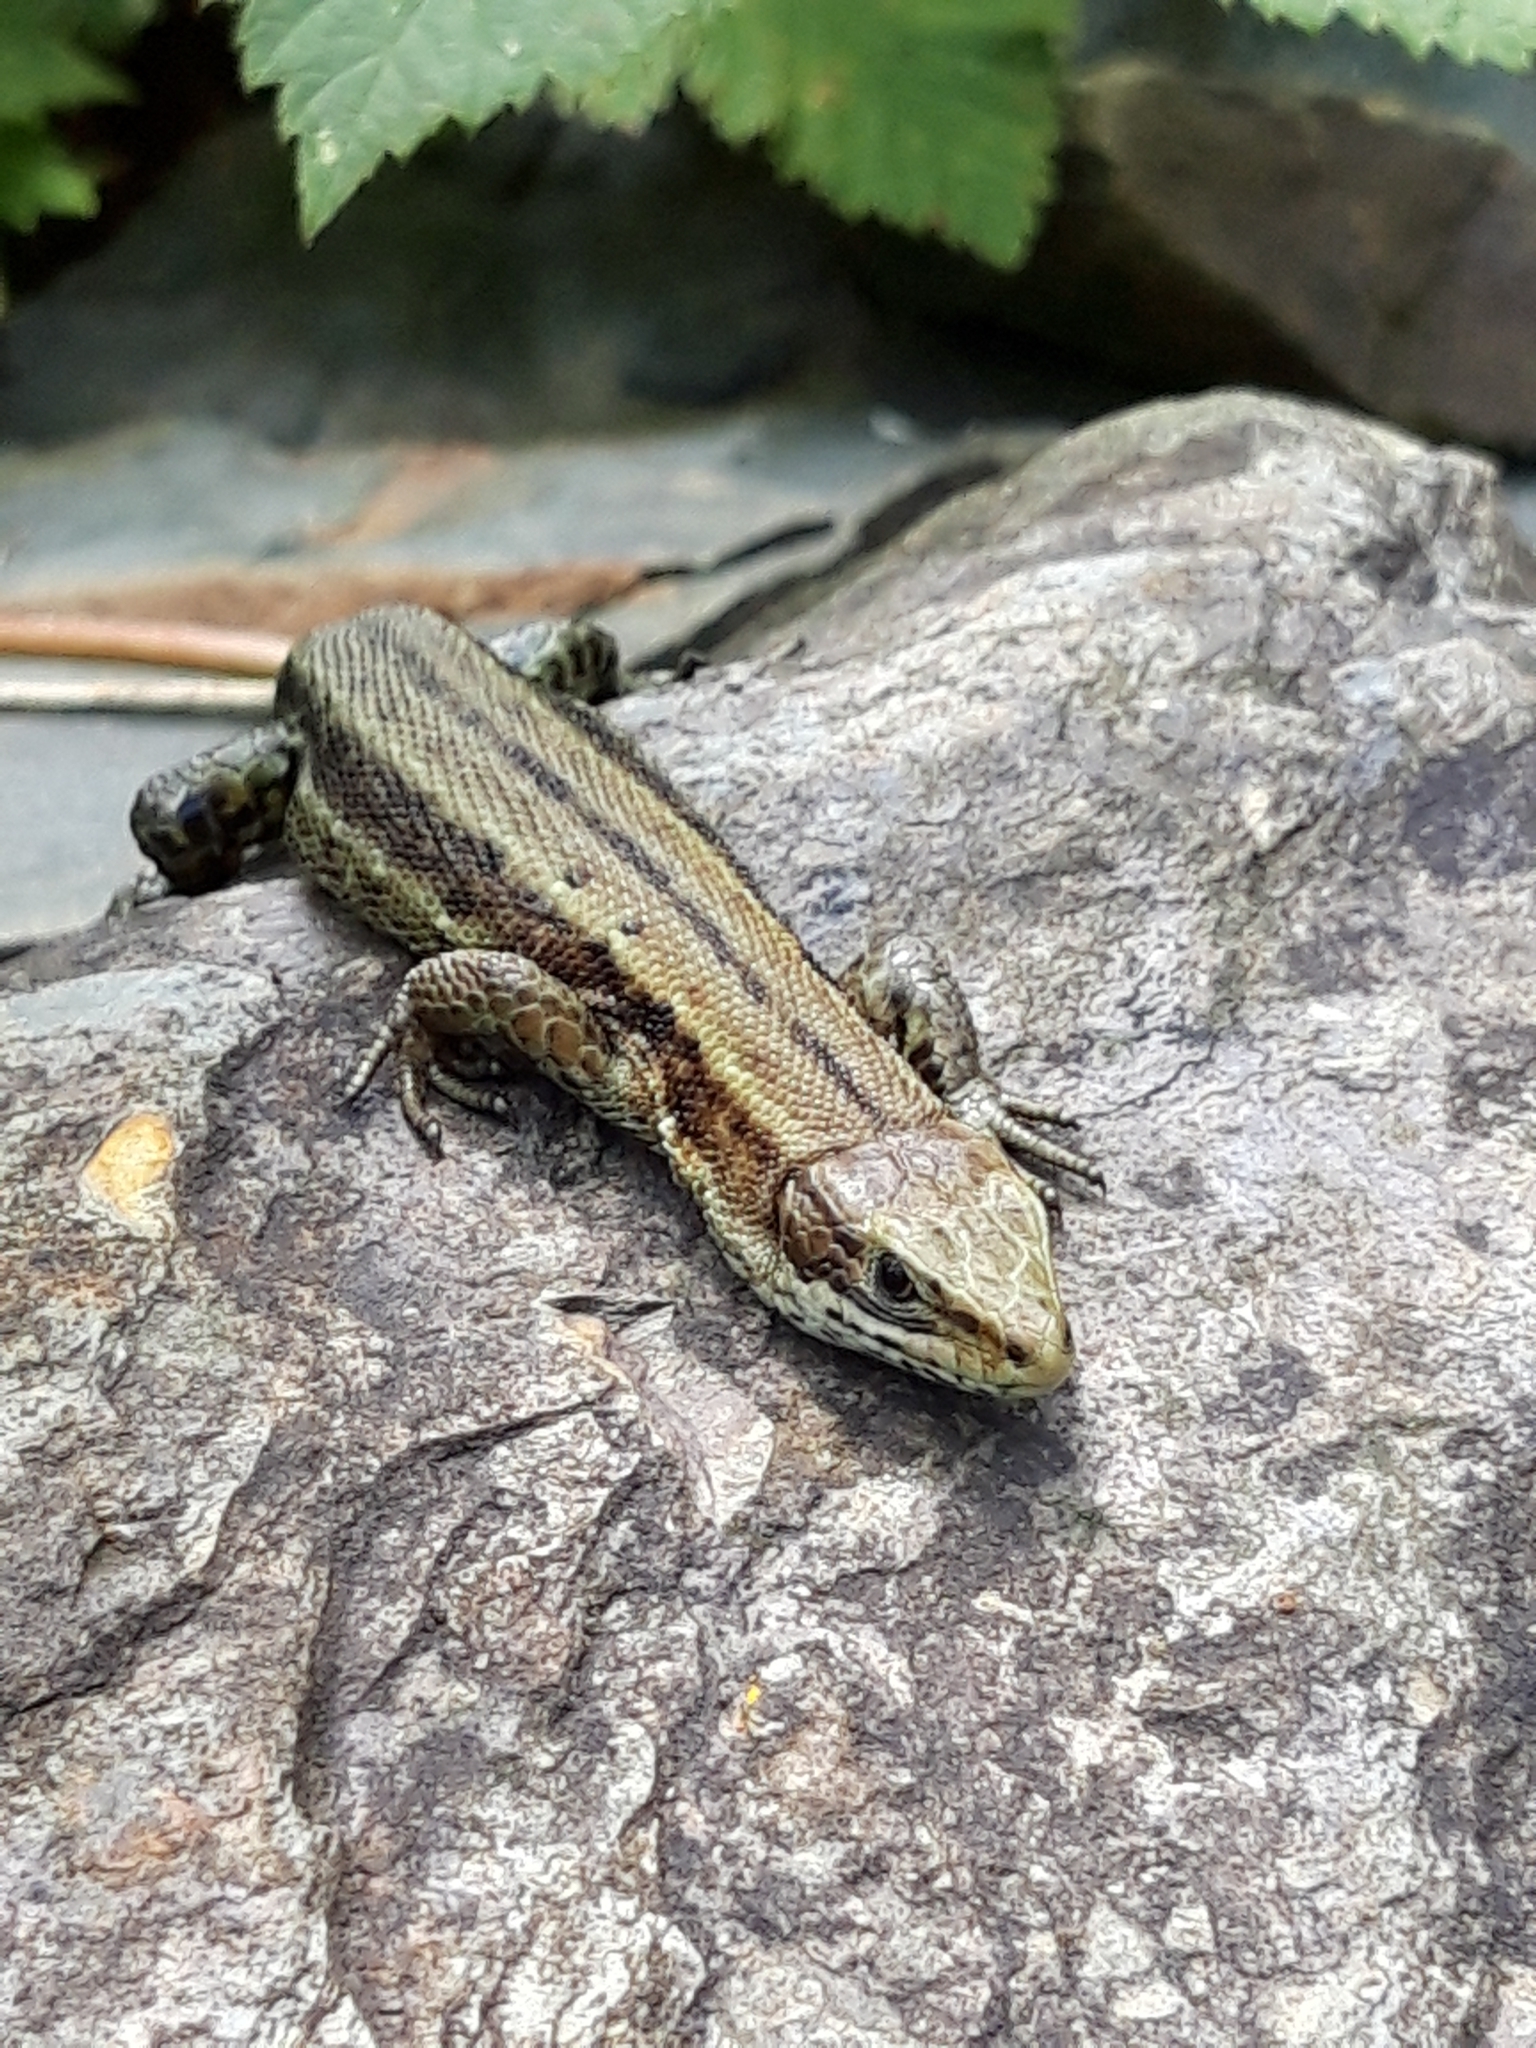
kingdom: Animalia
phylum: Chordata
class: Squamata
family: Lacertidae
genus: Zootoca
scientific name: Zootoca vivipara
